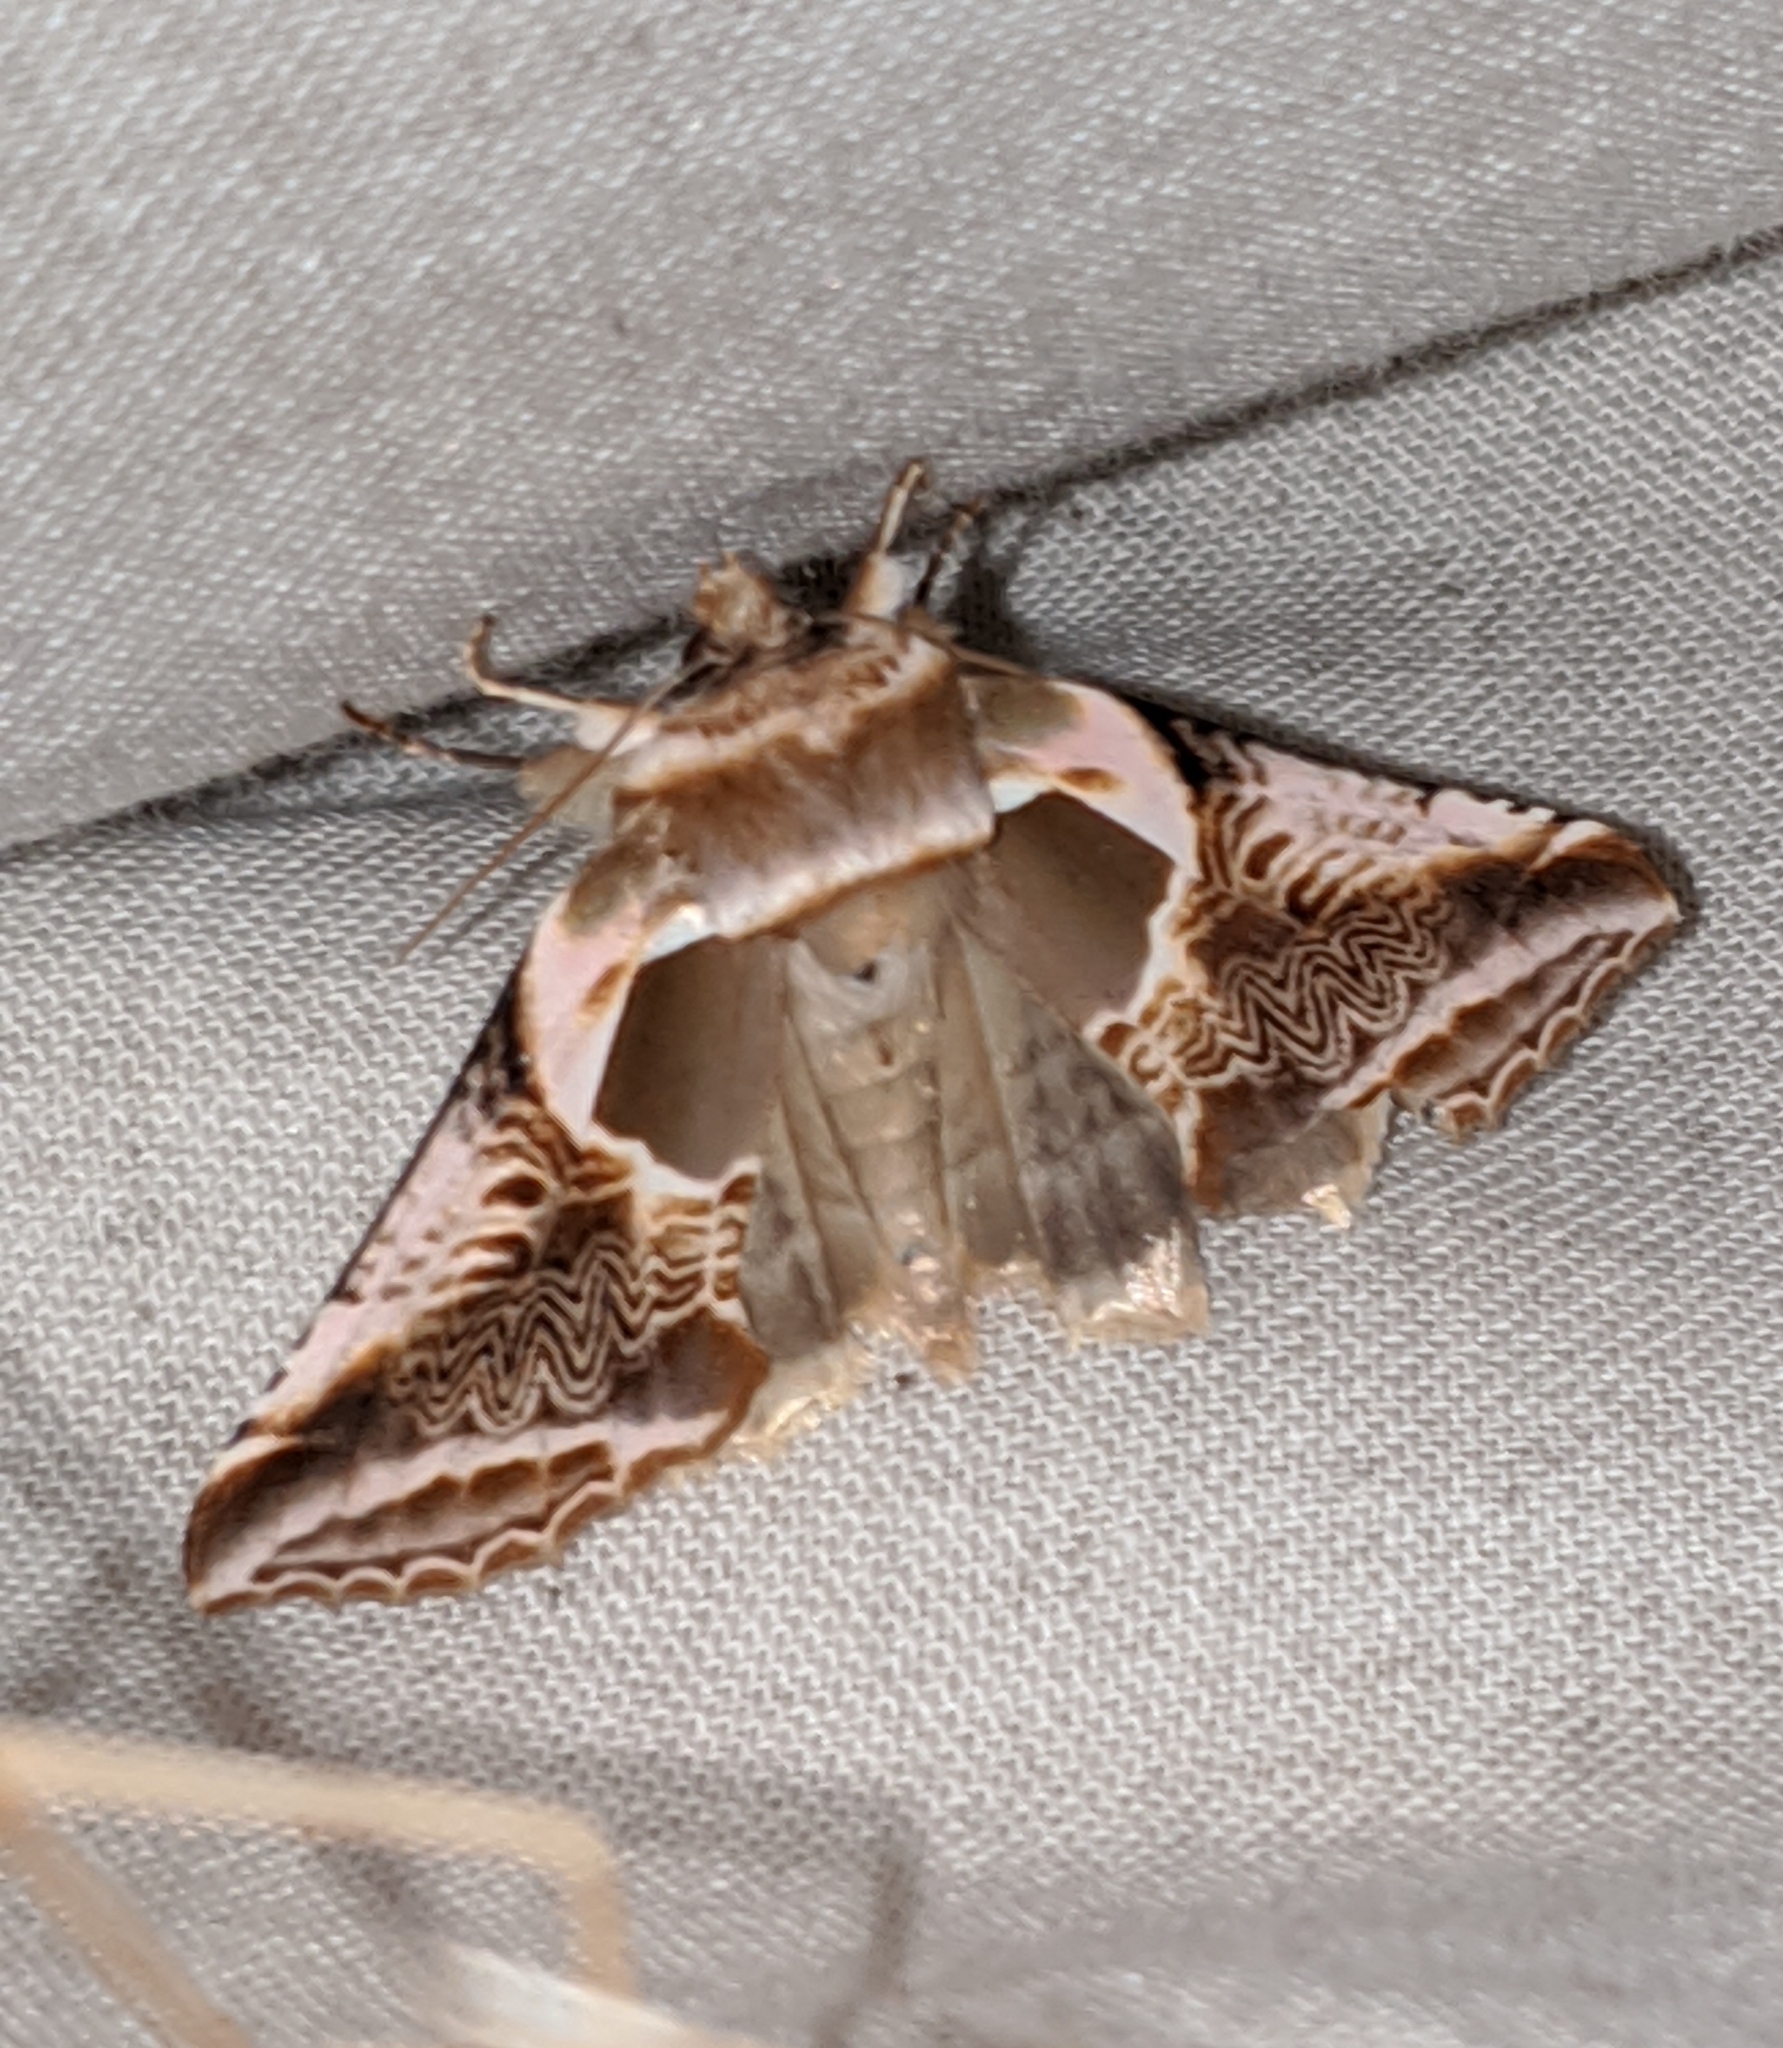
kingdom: Animalia
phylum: Arthropoda
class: Insecta
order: Lepidoptera
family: Drepanidae
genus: Habrosyne
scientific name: Habrosyne scripta
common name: Lettered habrosyne moth
